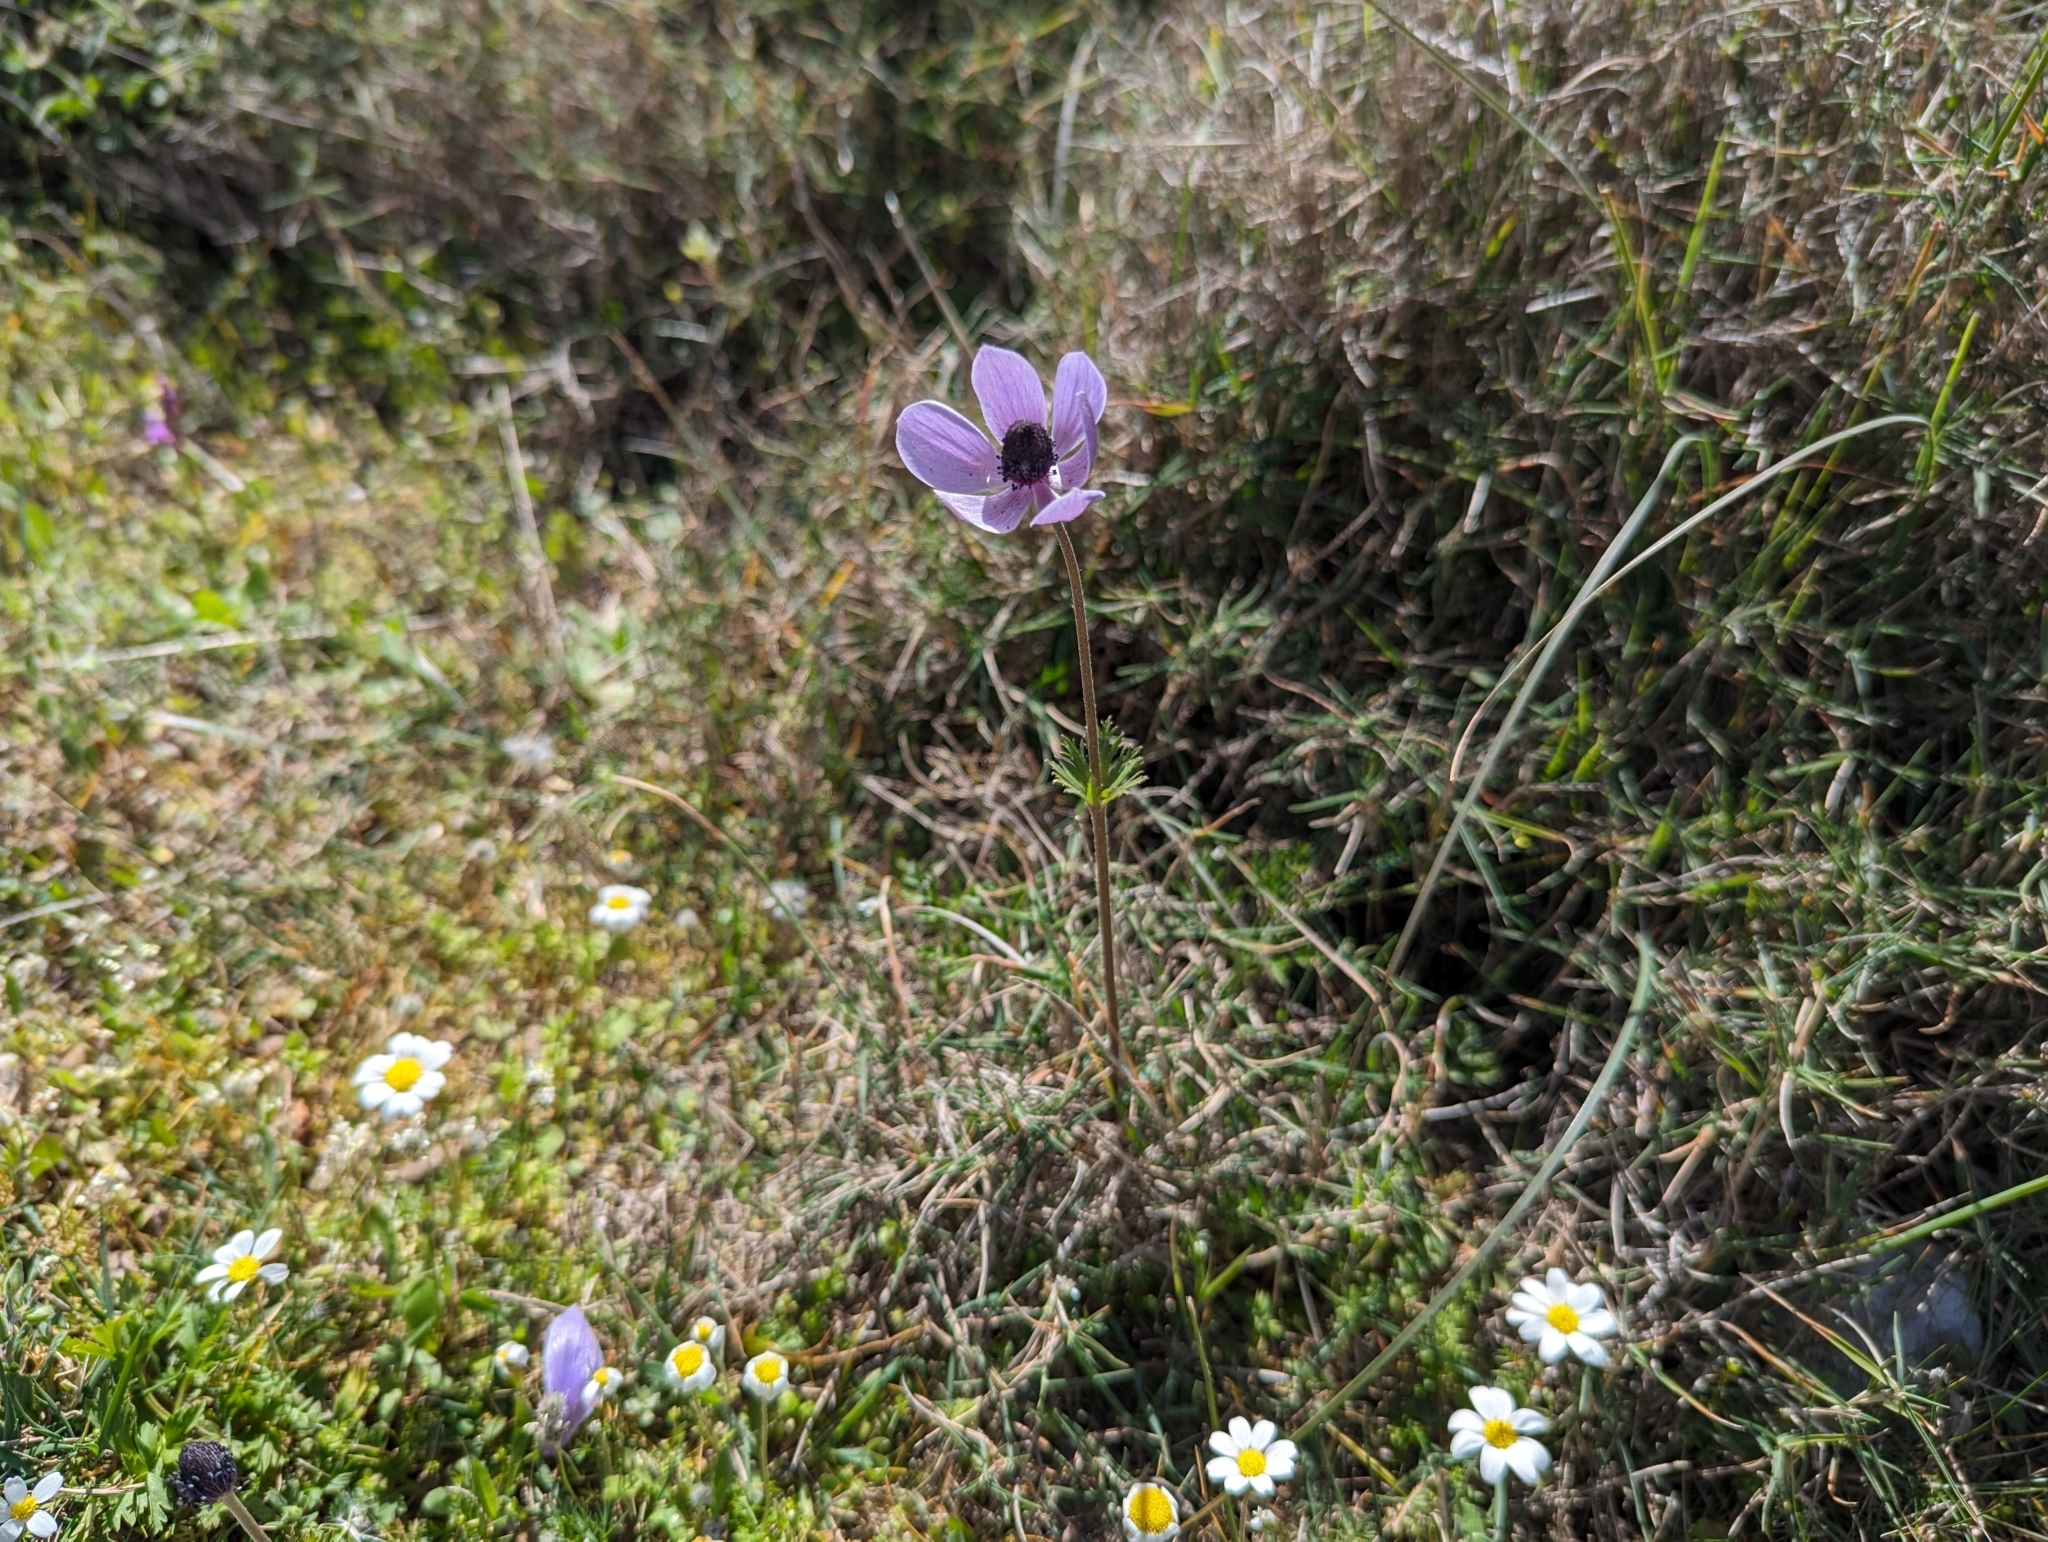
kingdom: Plantae
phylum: Tracheophyta
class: Magnoliopsida
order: Ranunculales
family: Ranunculaceae
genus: Anemone
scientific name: Anemone coronaria
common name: Poppy anemone
